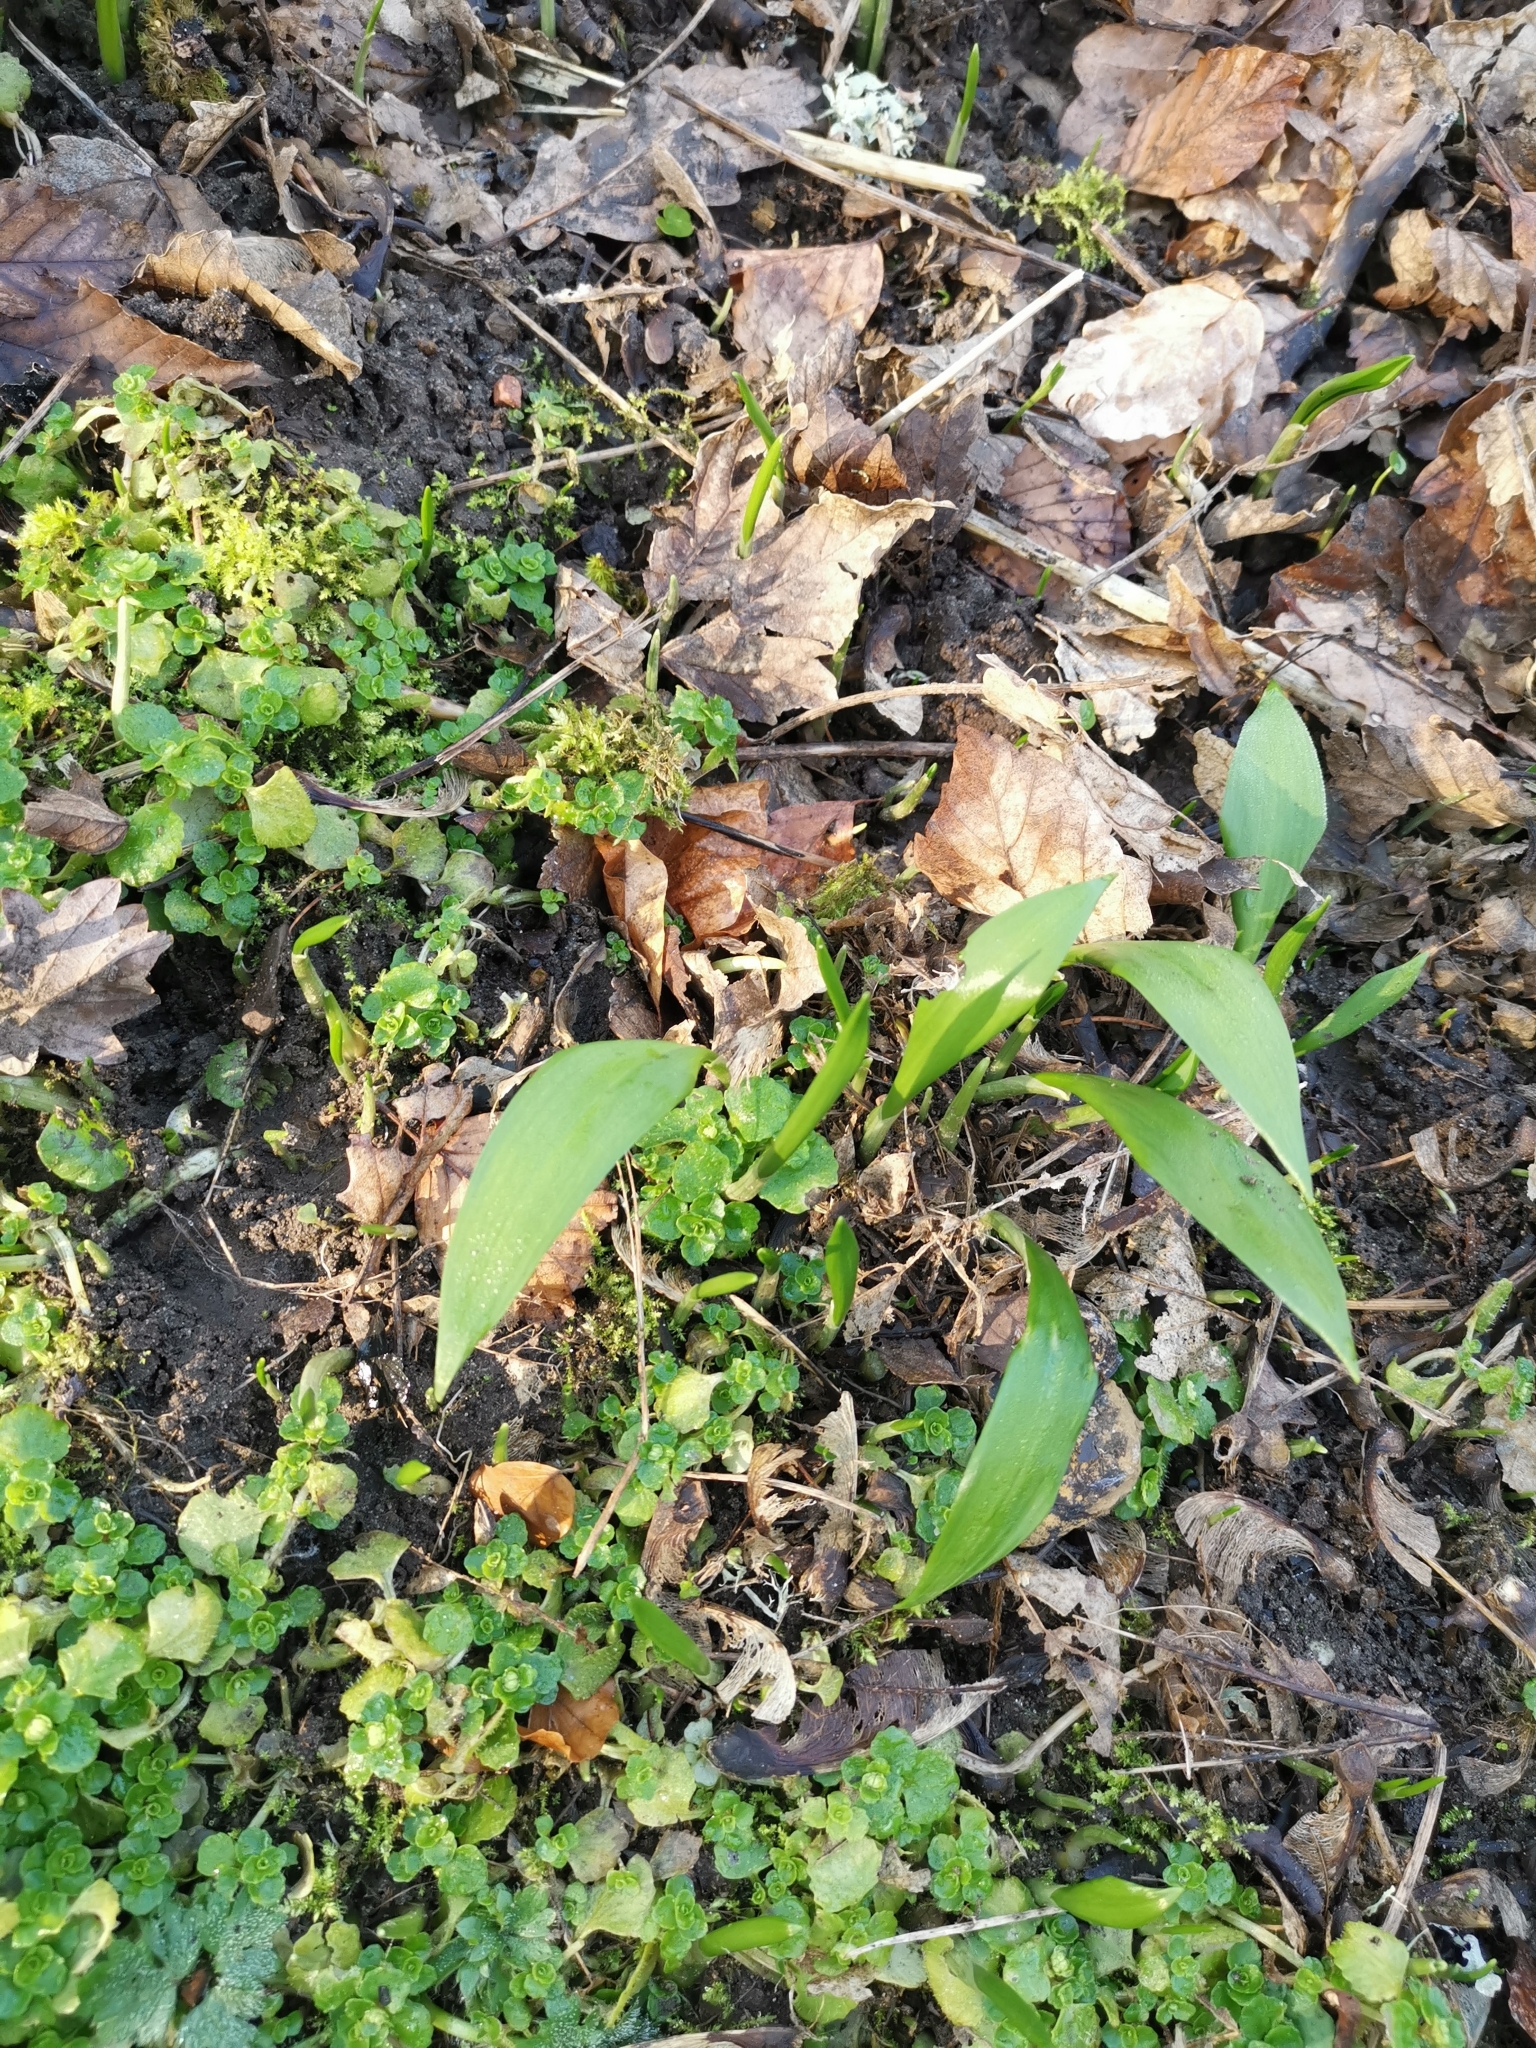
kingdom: Plantae
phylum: Tracheophyta
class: Liliopsida
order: Asparagales
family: Amaryllidaceae
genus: Allium
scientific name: Allium ursinum
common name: Ramsons
